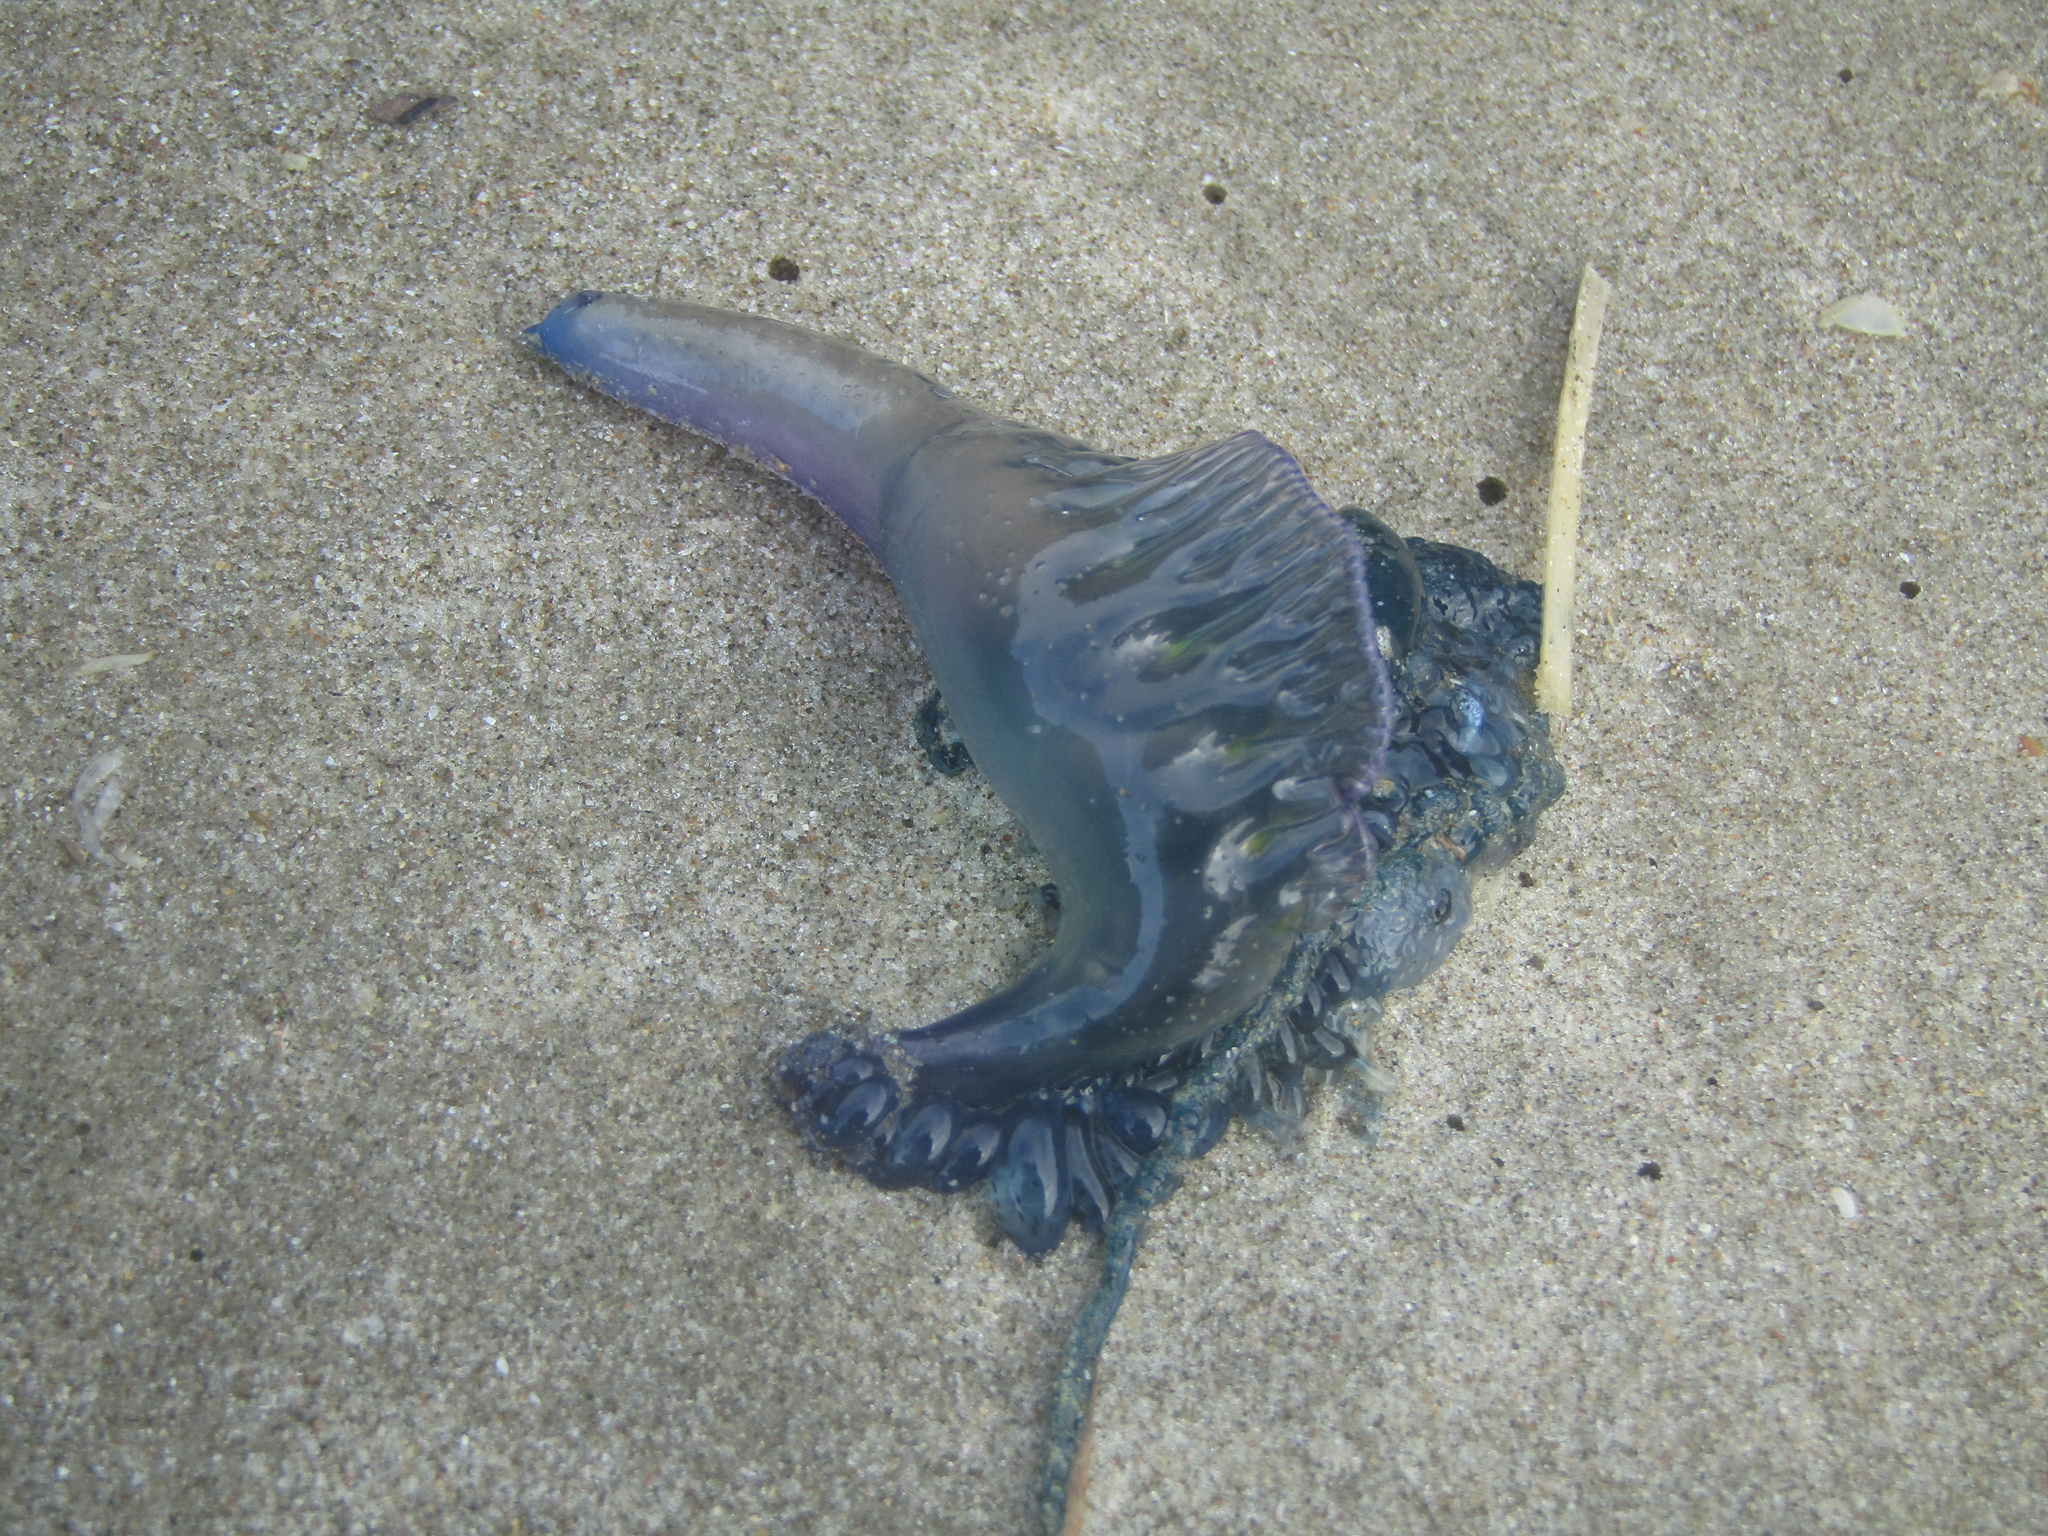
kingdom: Animalia
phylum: Cnidaria
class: Hydrozoa
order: Siphonophorae
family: Physaliidae
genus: Physalia
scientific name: Physalia physalis
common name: Portuguese man-of-war
